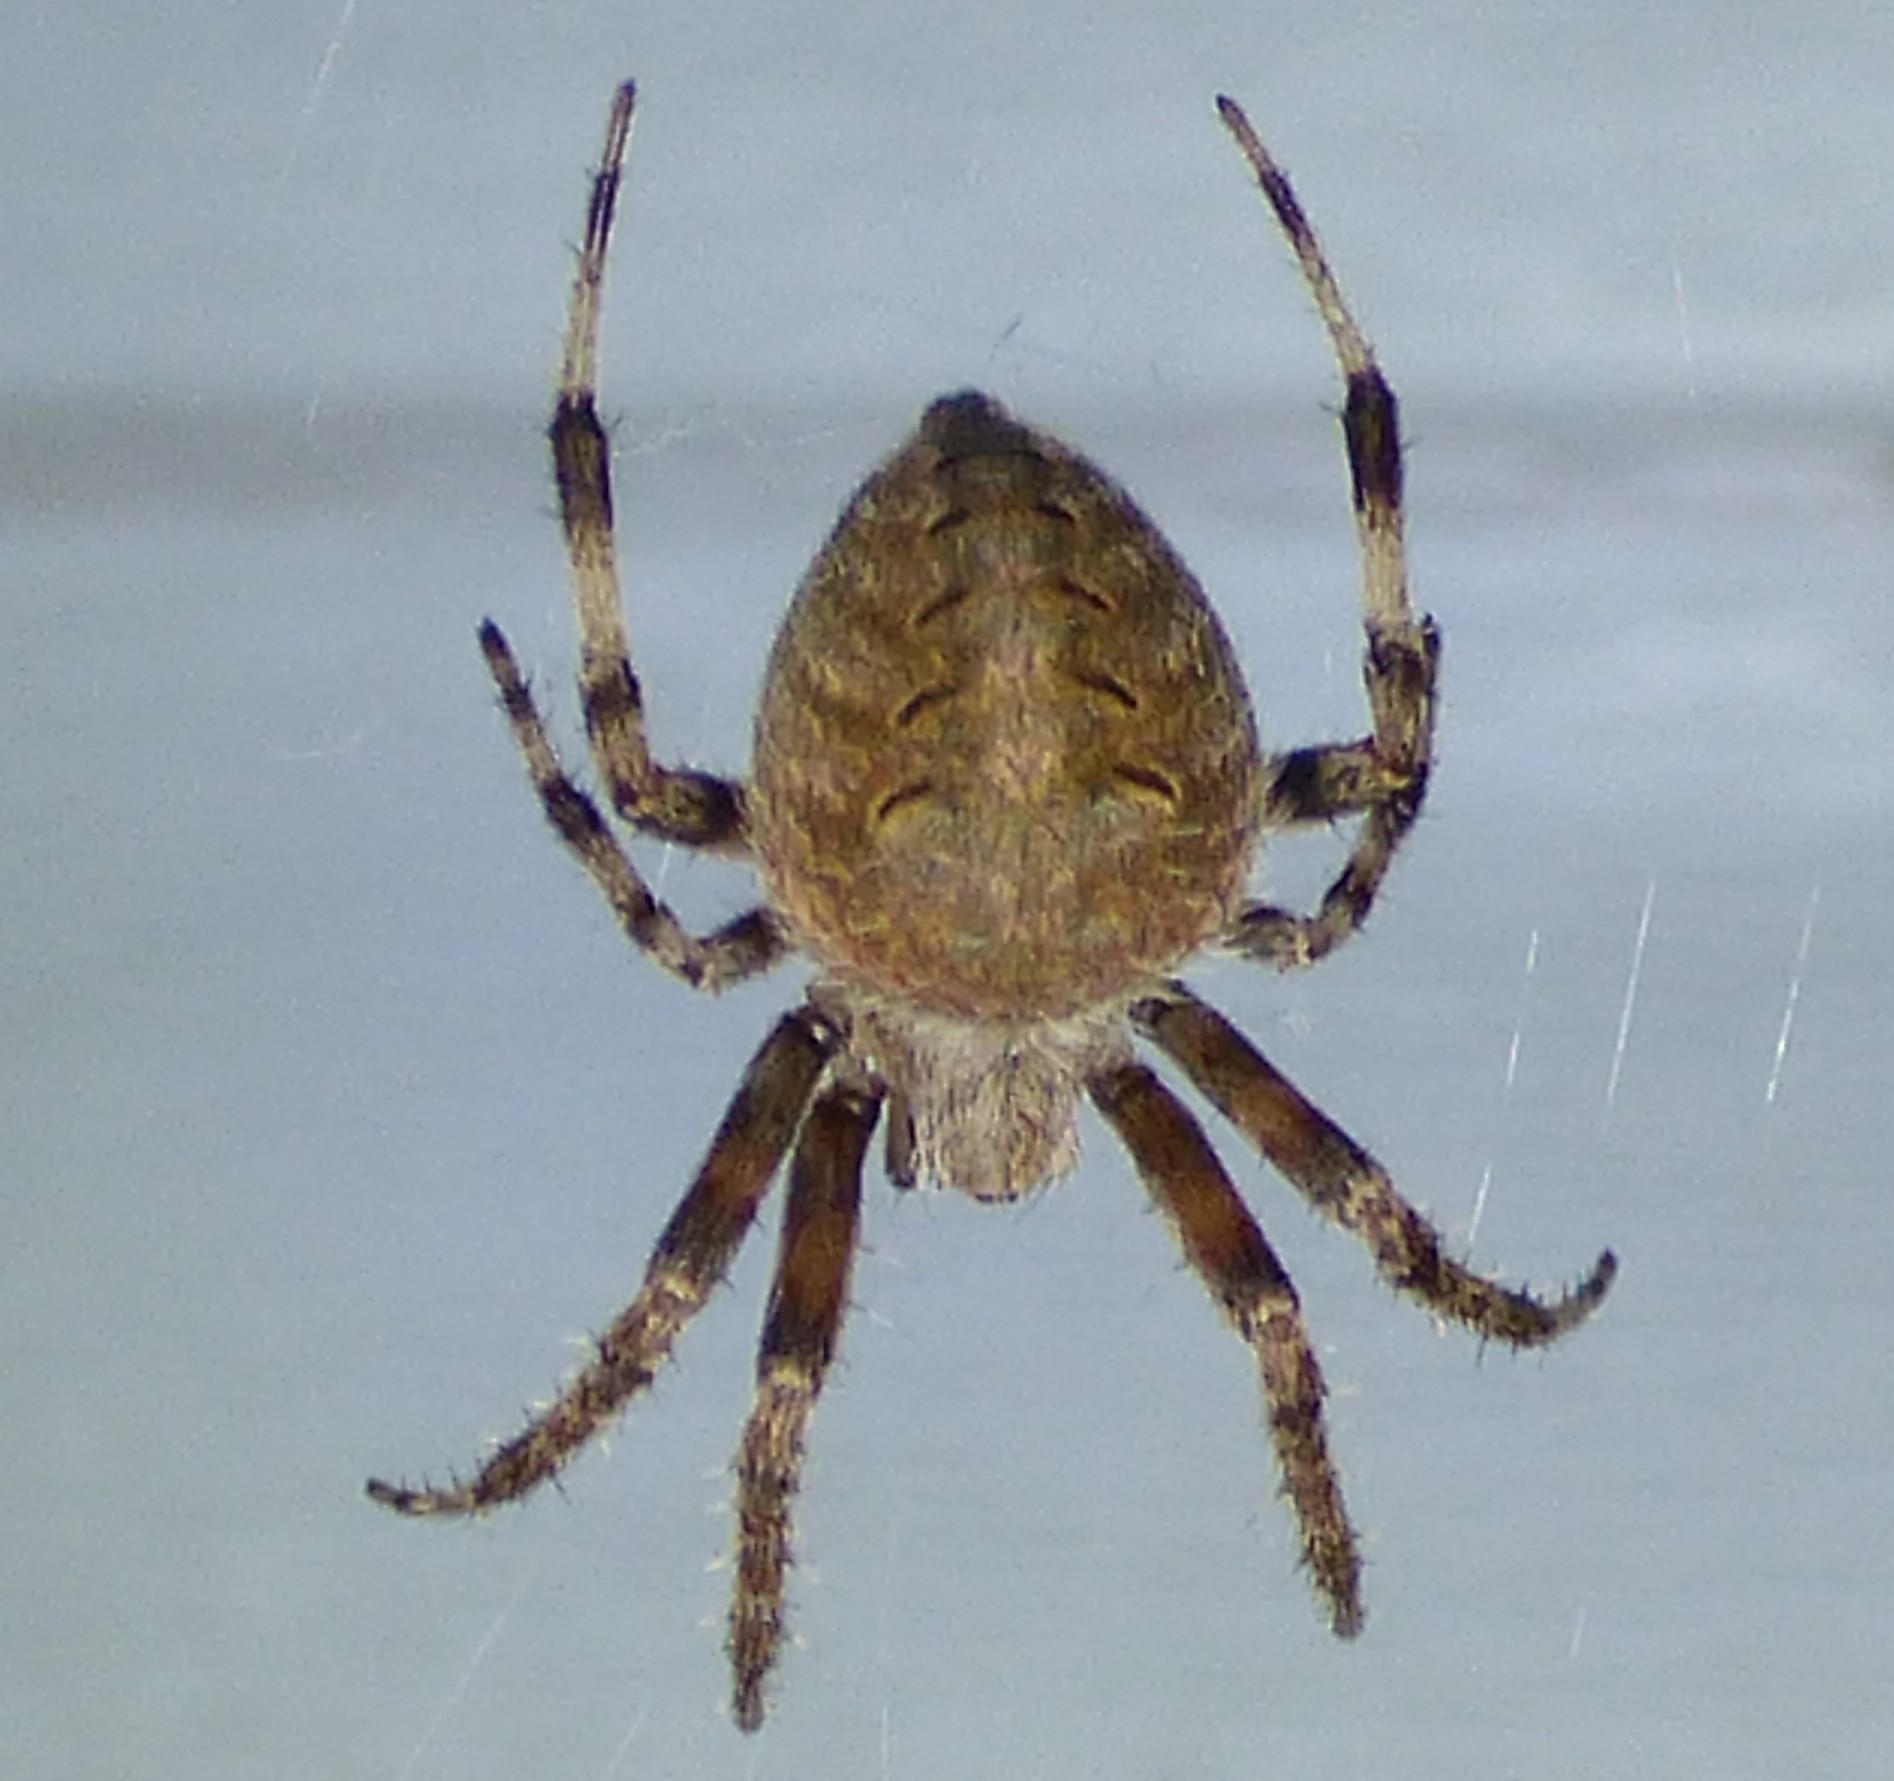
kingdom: Animalia
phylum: Arthropoda
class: Arachnida
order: Araneae
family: Araneidae
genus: Neoscona
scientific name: Neoscona crucifera
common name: Spotted orbweaver
